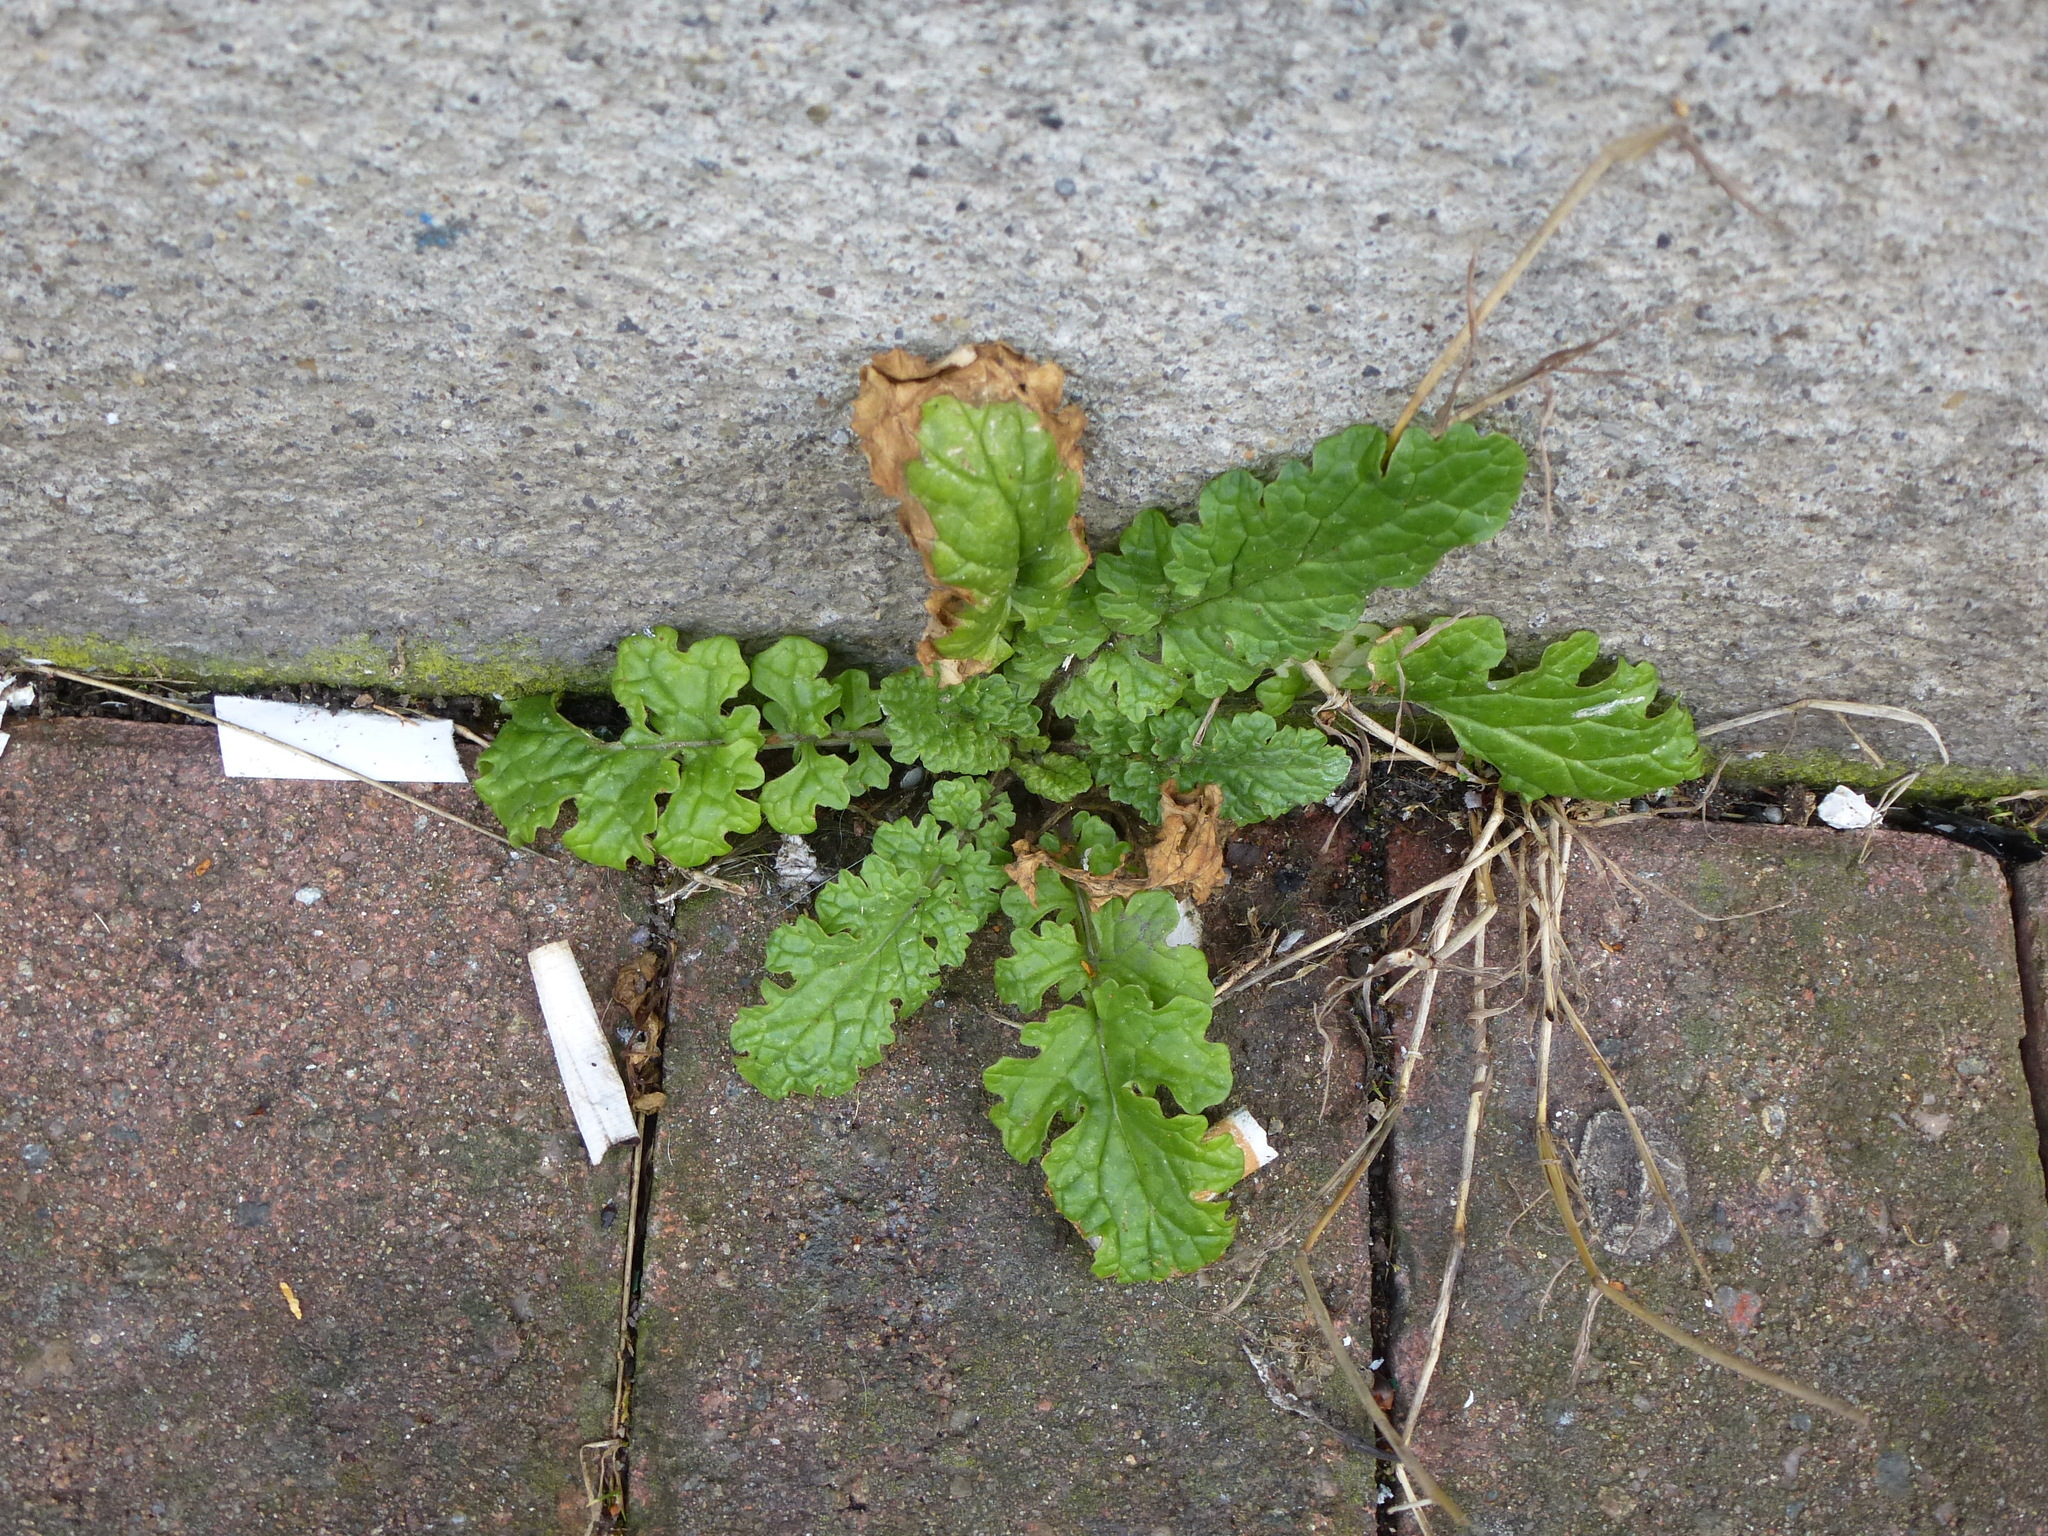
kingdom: Plantae
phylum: Tracheophyta
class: Magnoliopsida
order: Asterales
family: Asteraceae
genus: Jacobaea
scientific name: Jacobaea vulgaris
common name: Stinking willie
